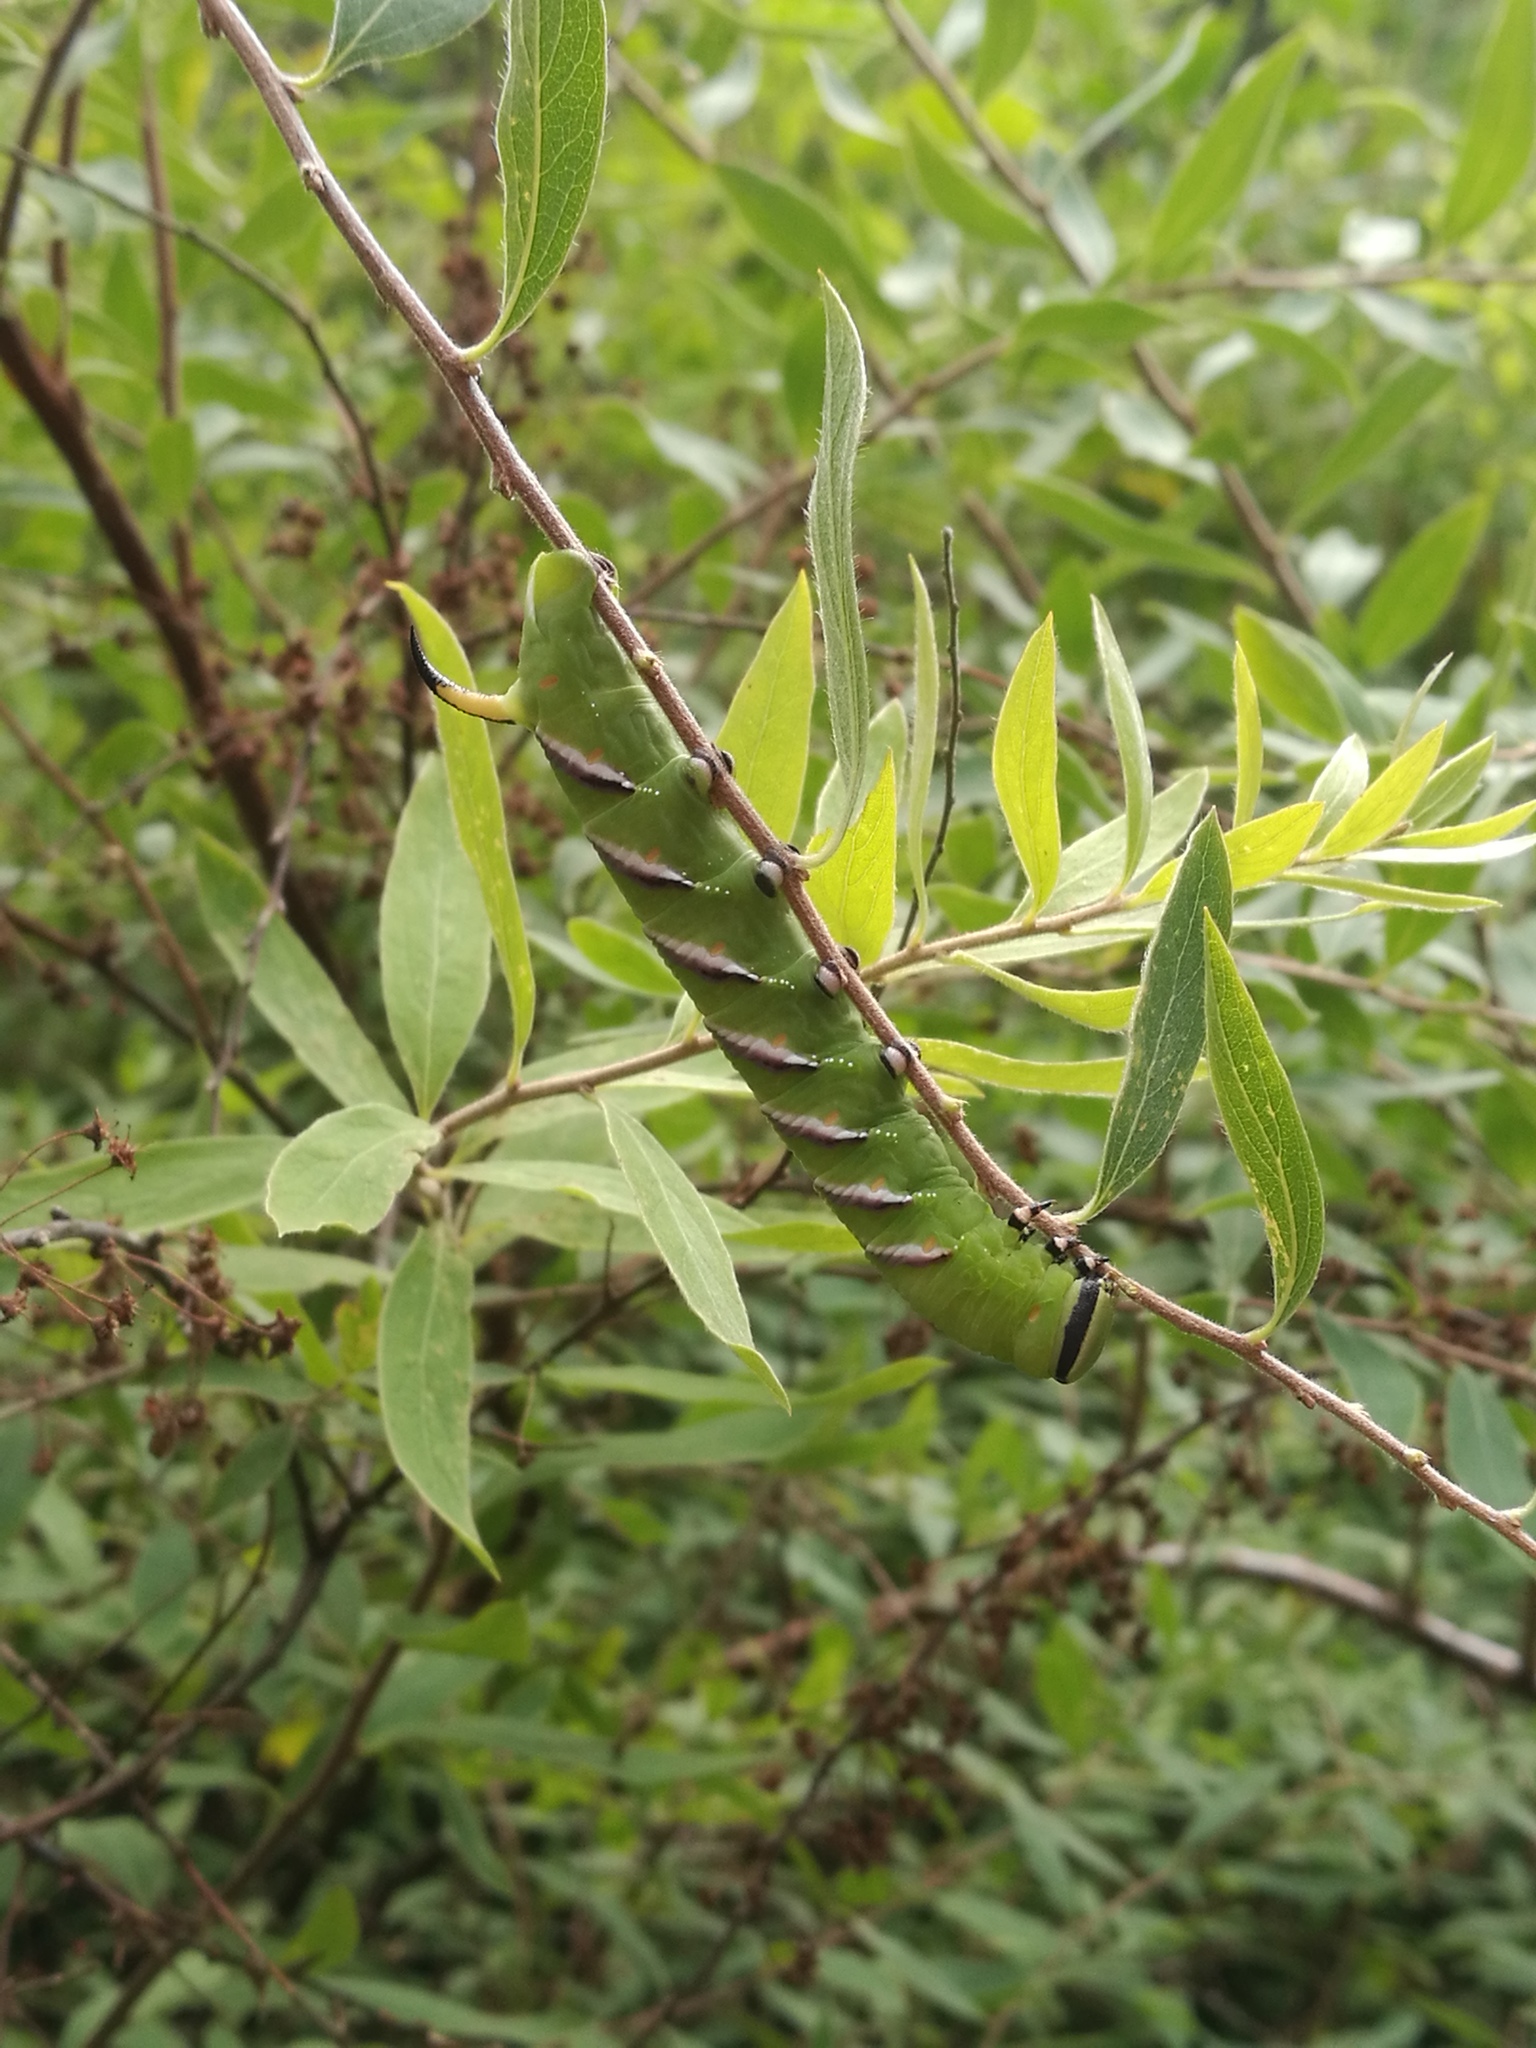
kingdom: Animalia
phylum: Arthropoda
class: Insecta
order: Lepidoptera
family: Sphingidae
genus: Sphinx
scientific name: Sphinx ligustri
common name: Privet hawk-moth
